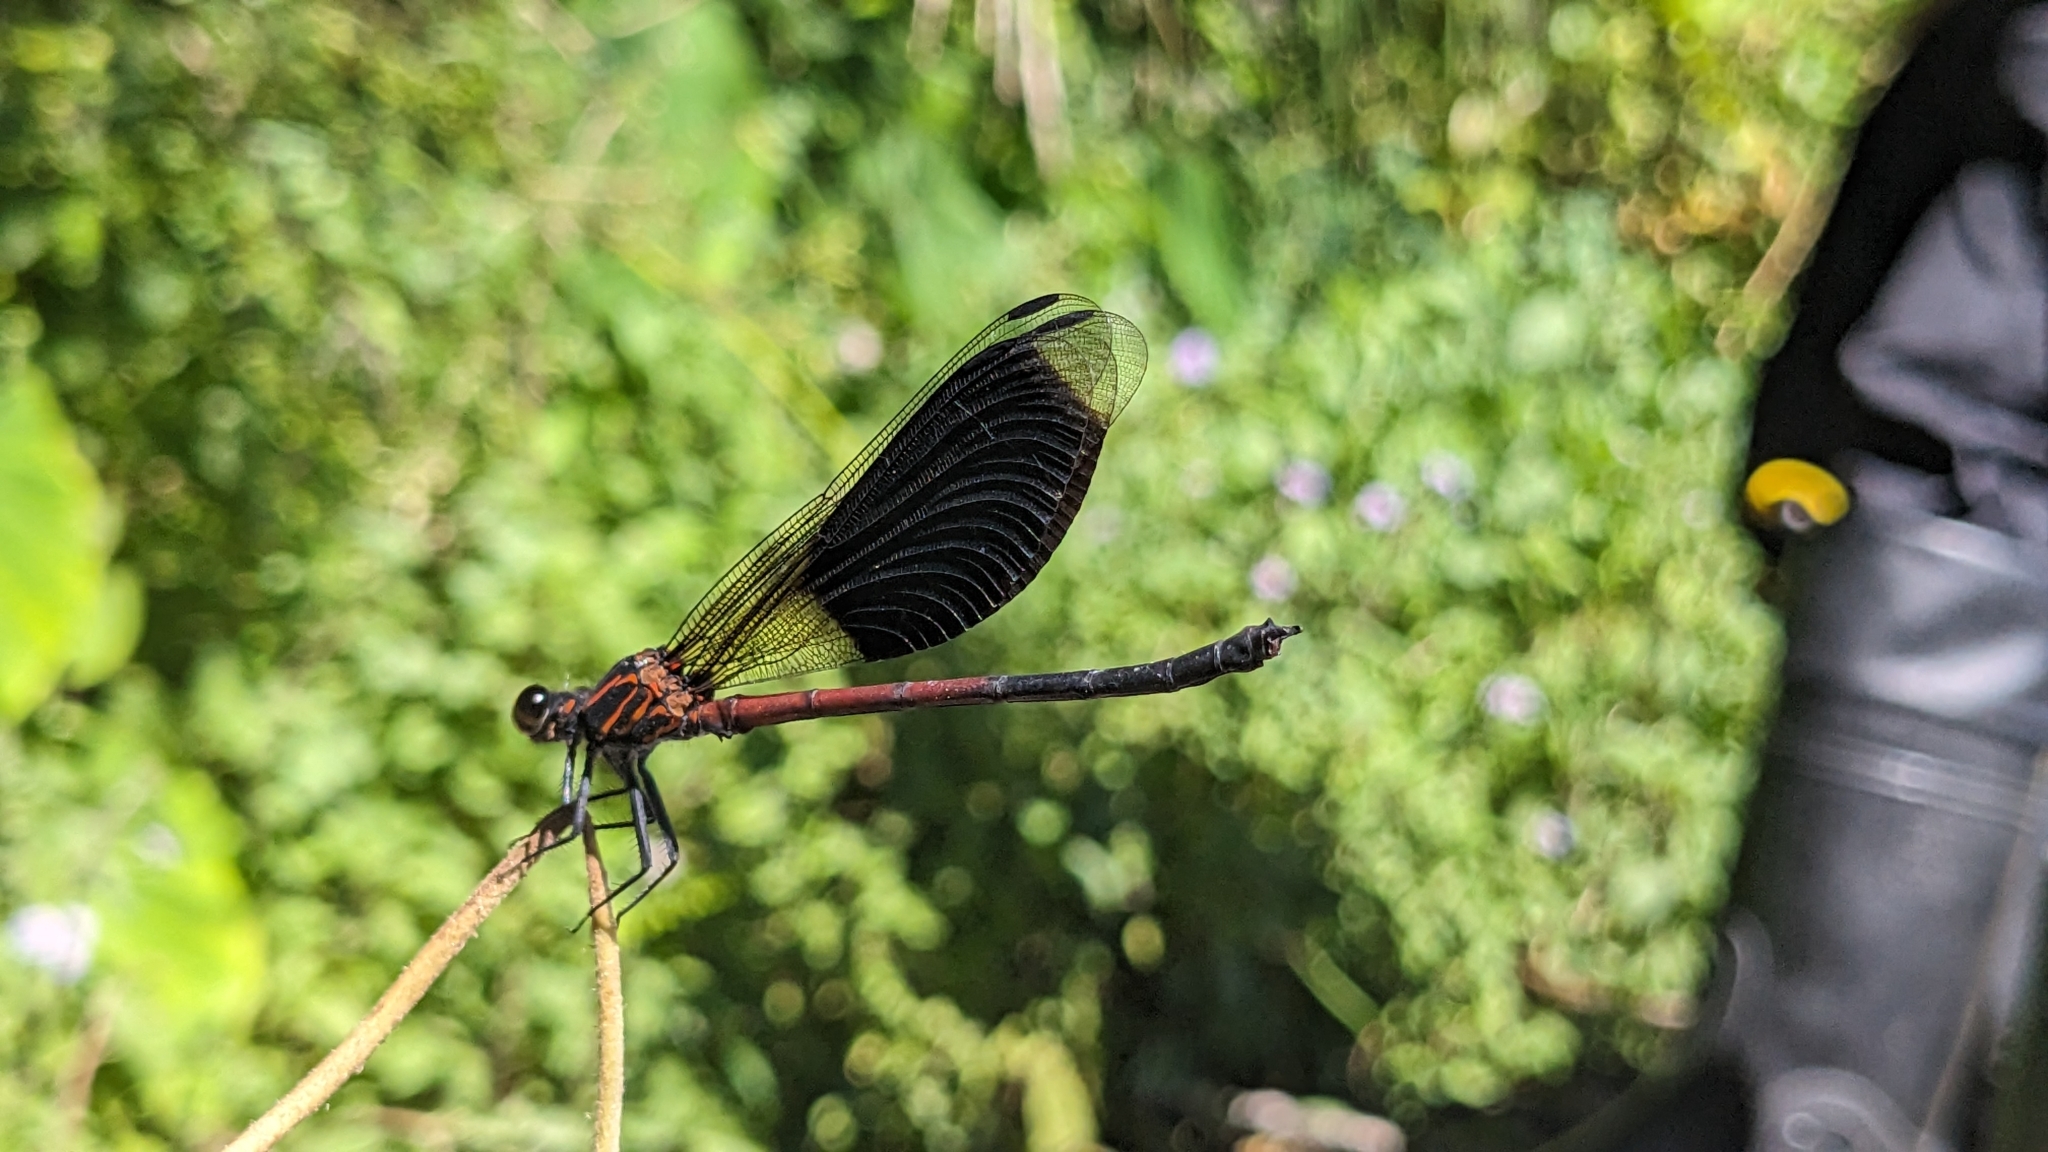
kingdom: Animalia
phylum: Arthropoda
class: Insecta
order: Odonata
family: Euphaeidae
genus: Euphaea
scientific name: Euphaea formosa
